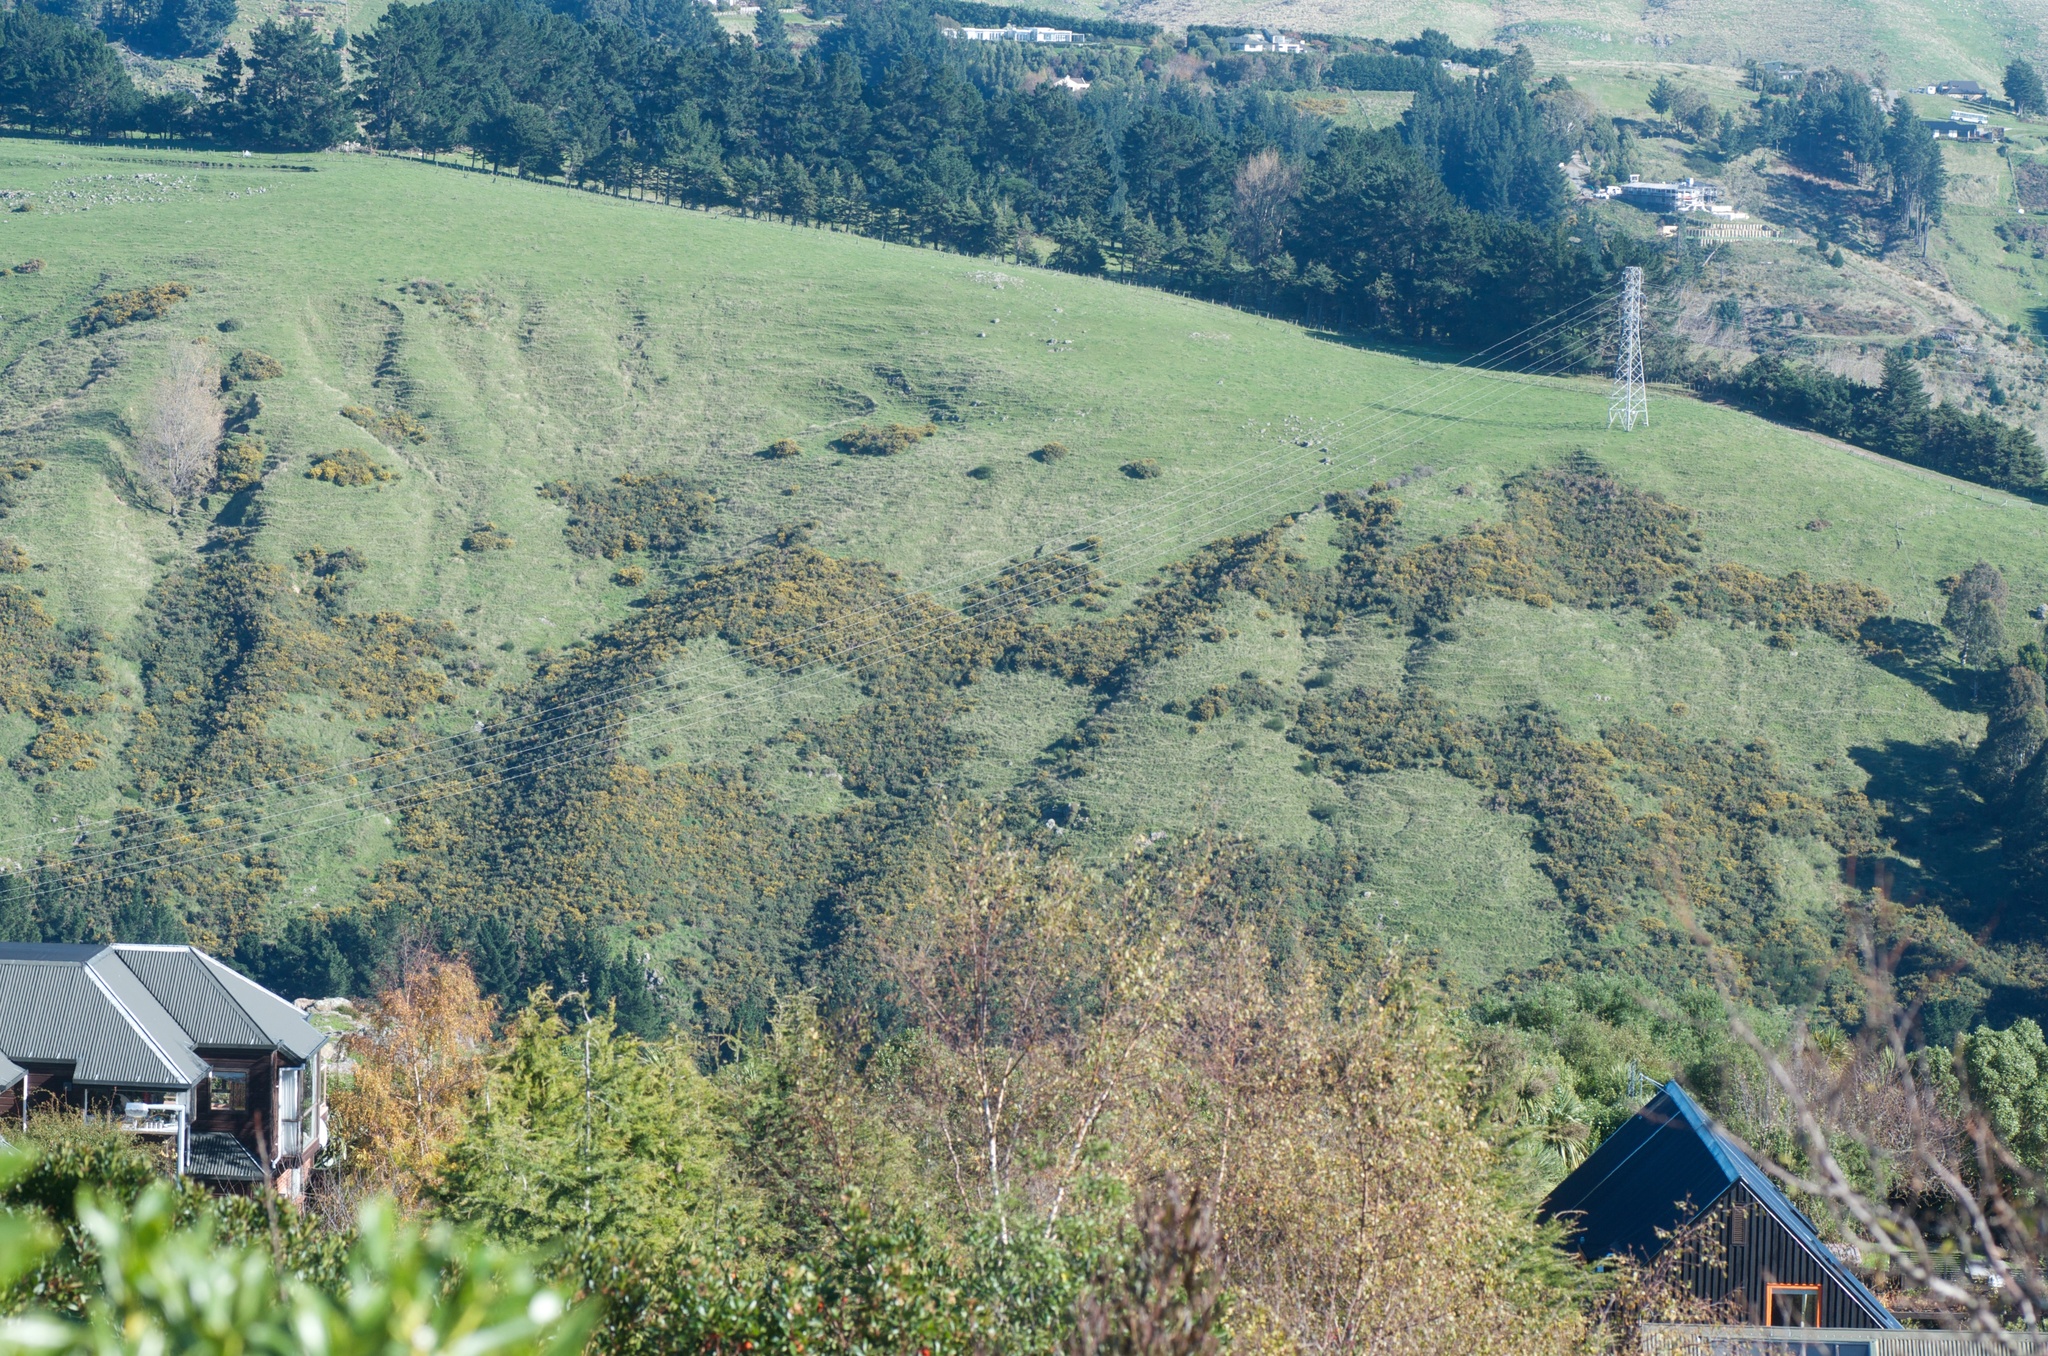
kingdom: Plantae
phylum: Tracheophyta
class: Magnoliopsida
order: Fabales
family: Fabaceae
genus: Ulex
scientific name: Ulex europaeus
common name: Common gorse
